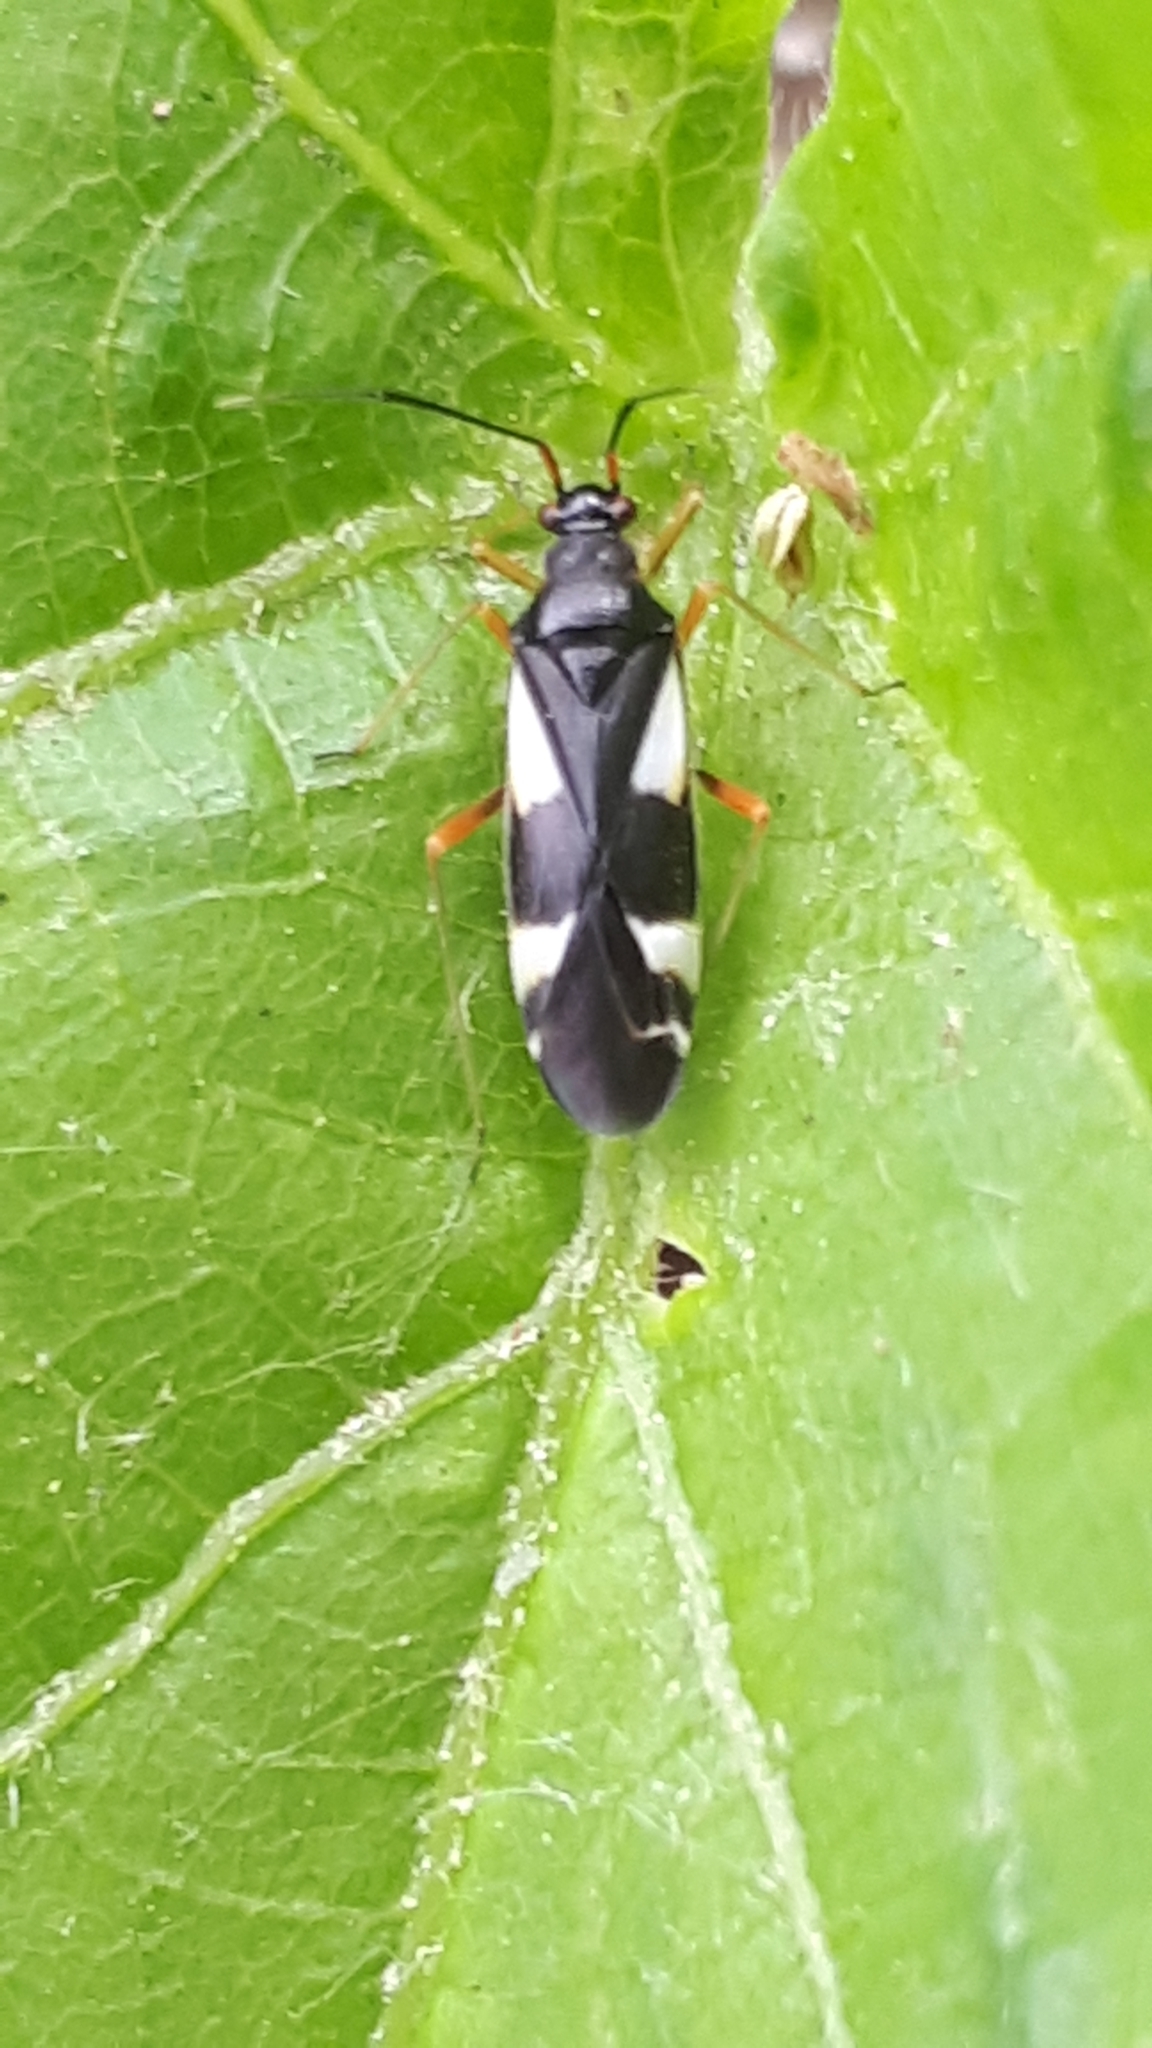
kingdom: Animalia
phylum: Arthropoda
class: Insecta
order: Hemiptera
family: Miridae
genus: Dryophilocoris
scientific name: Dryophilocoris flavoquadrimaculatus
